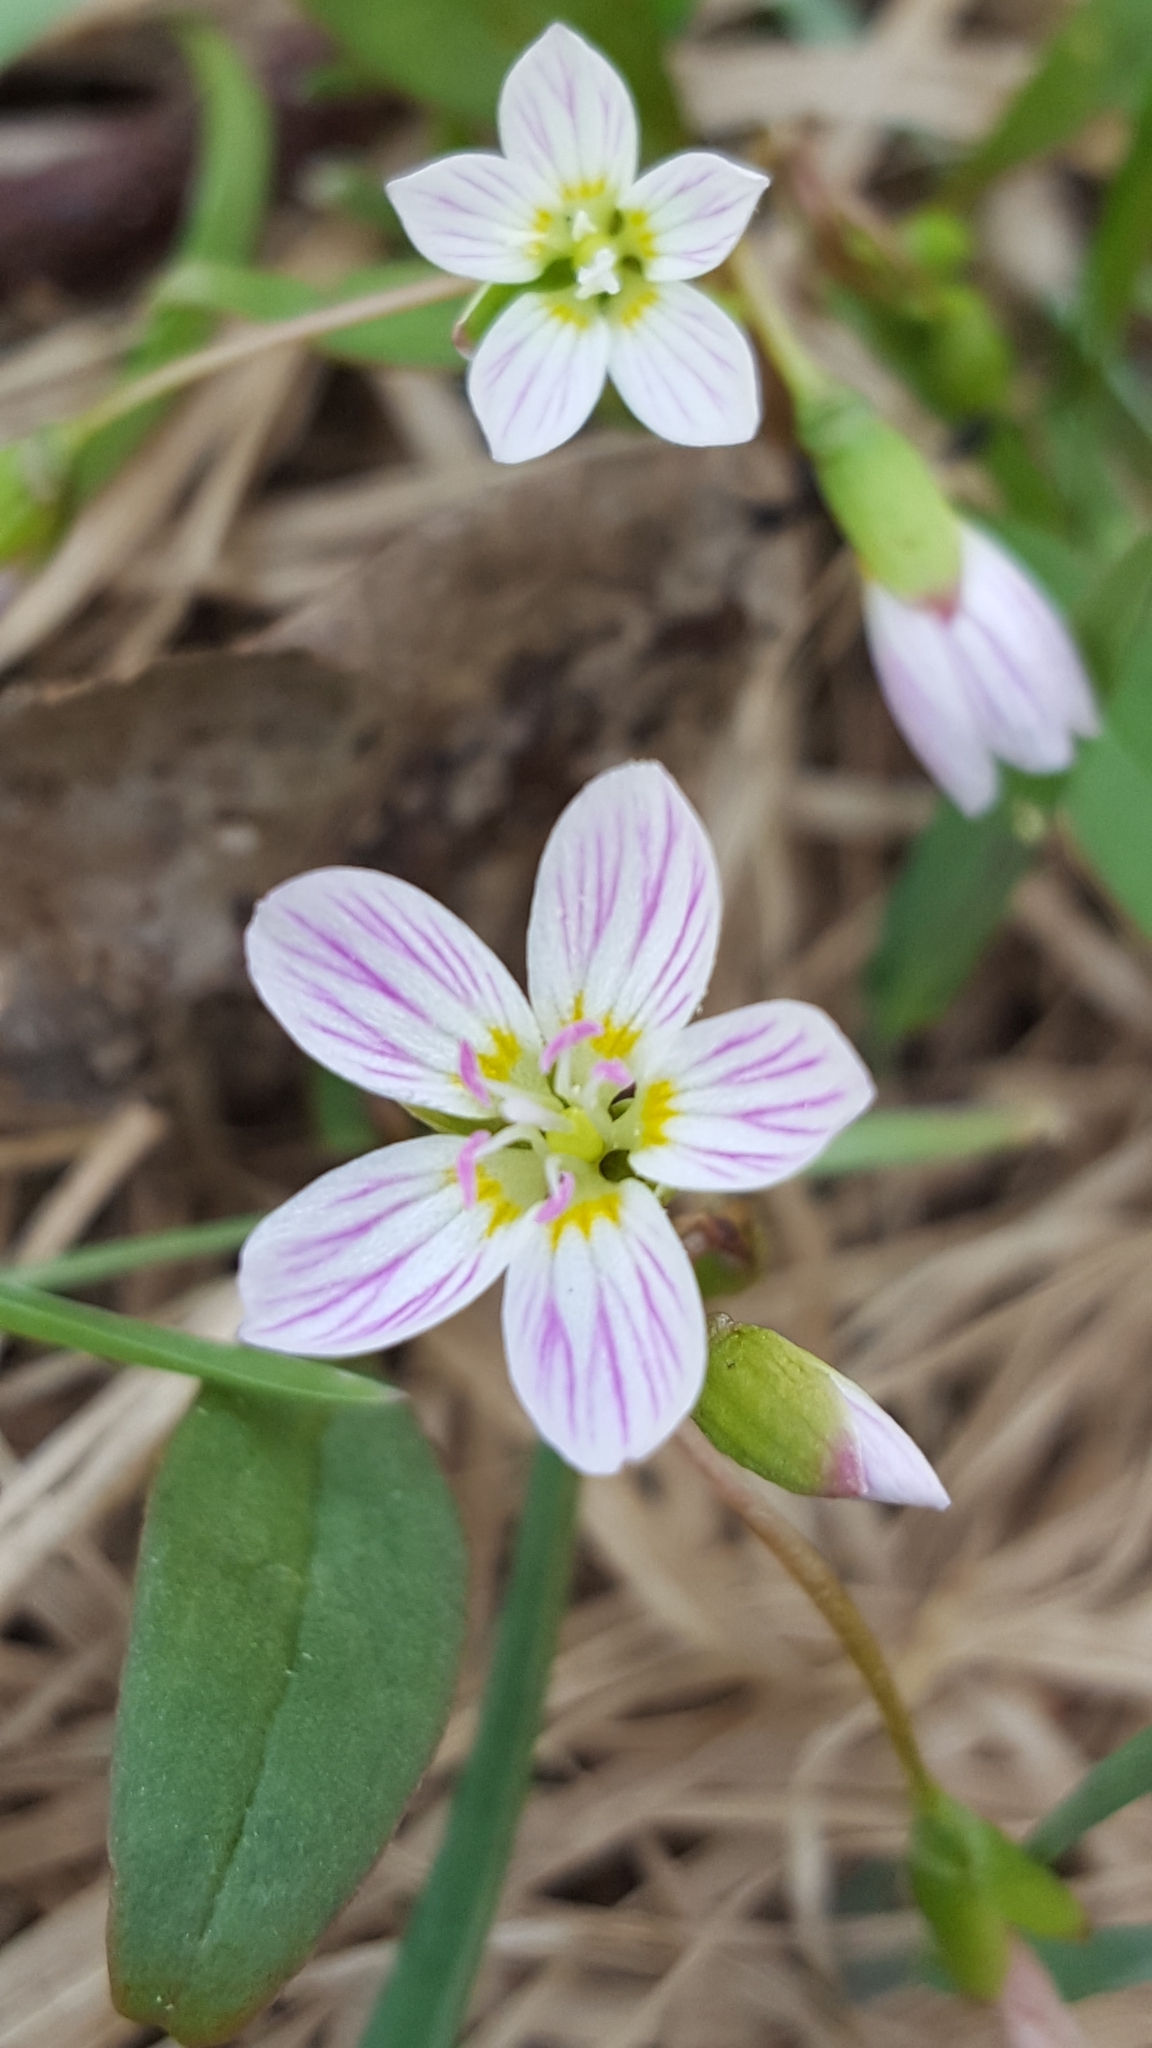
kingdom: Plantae
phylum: Tracheophyta
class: Magnoliopsida
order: Caryophyllales
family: Montiaceae
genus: Claytonia
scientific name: Claytonia caroliniana
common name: Carolina spring beauty
